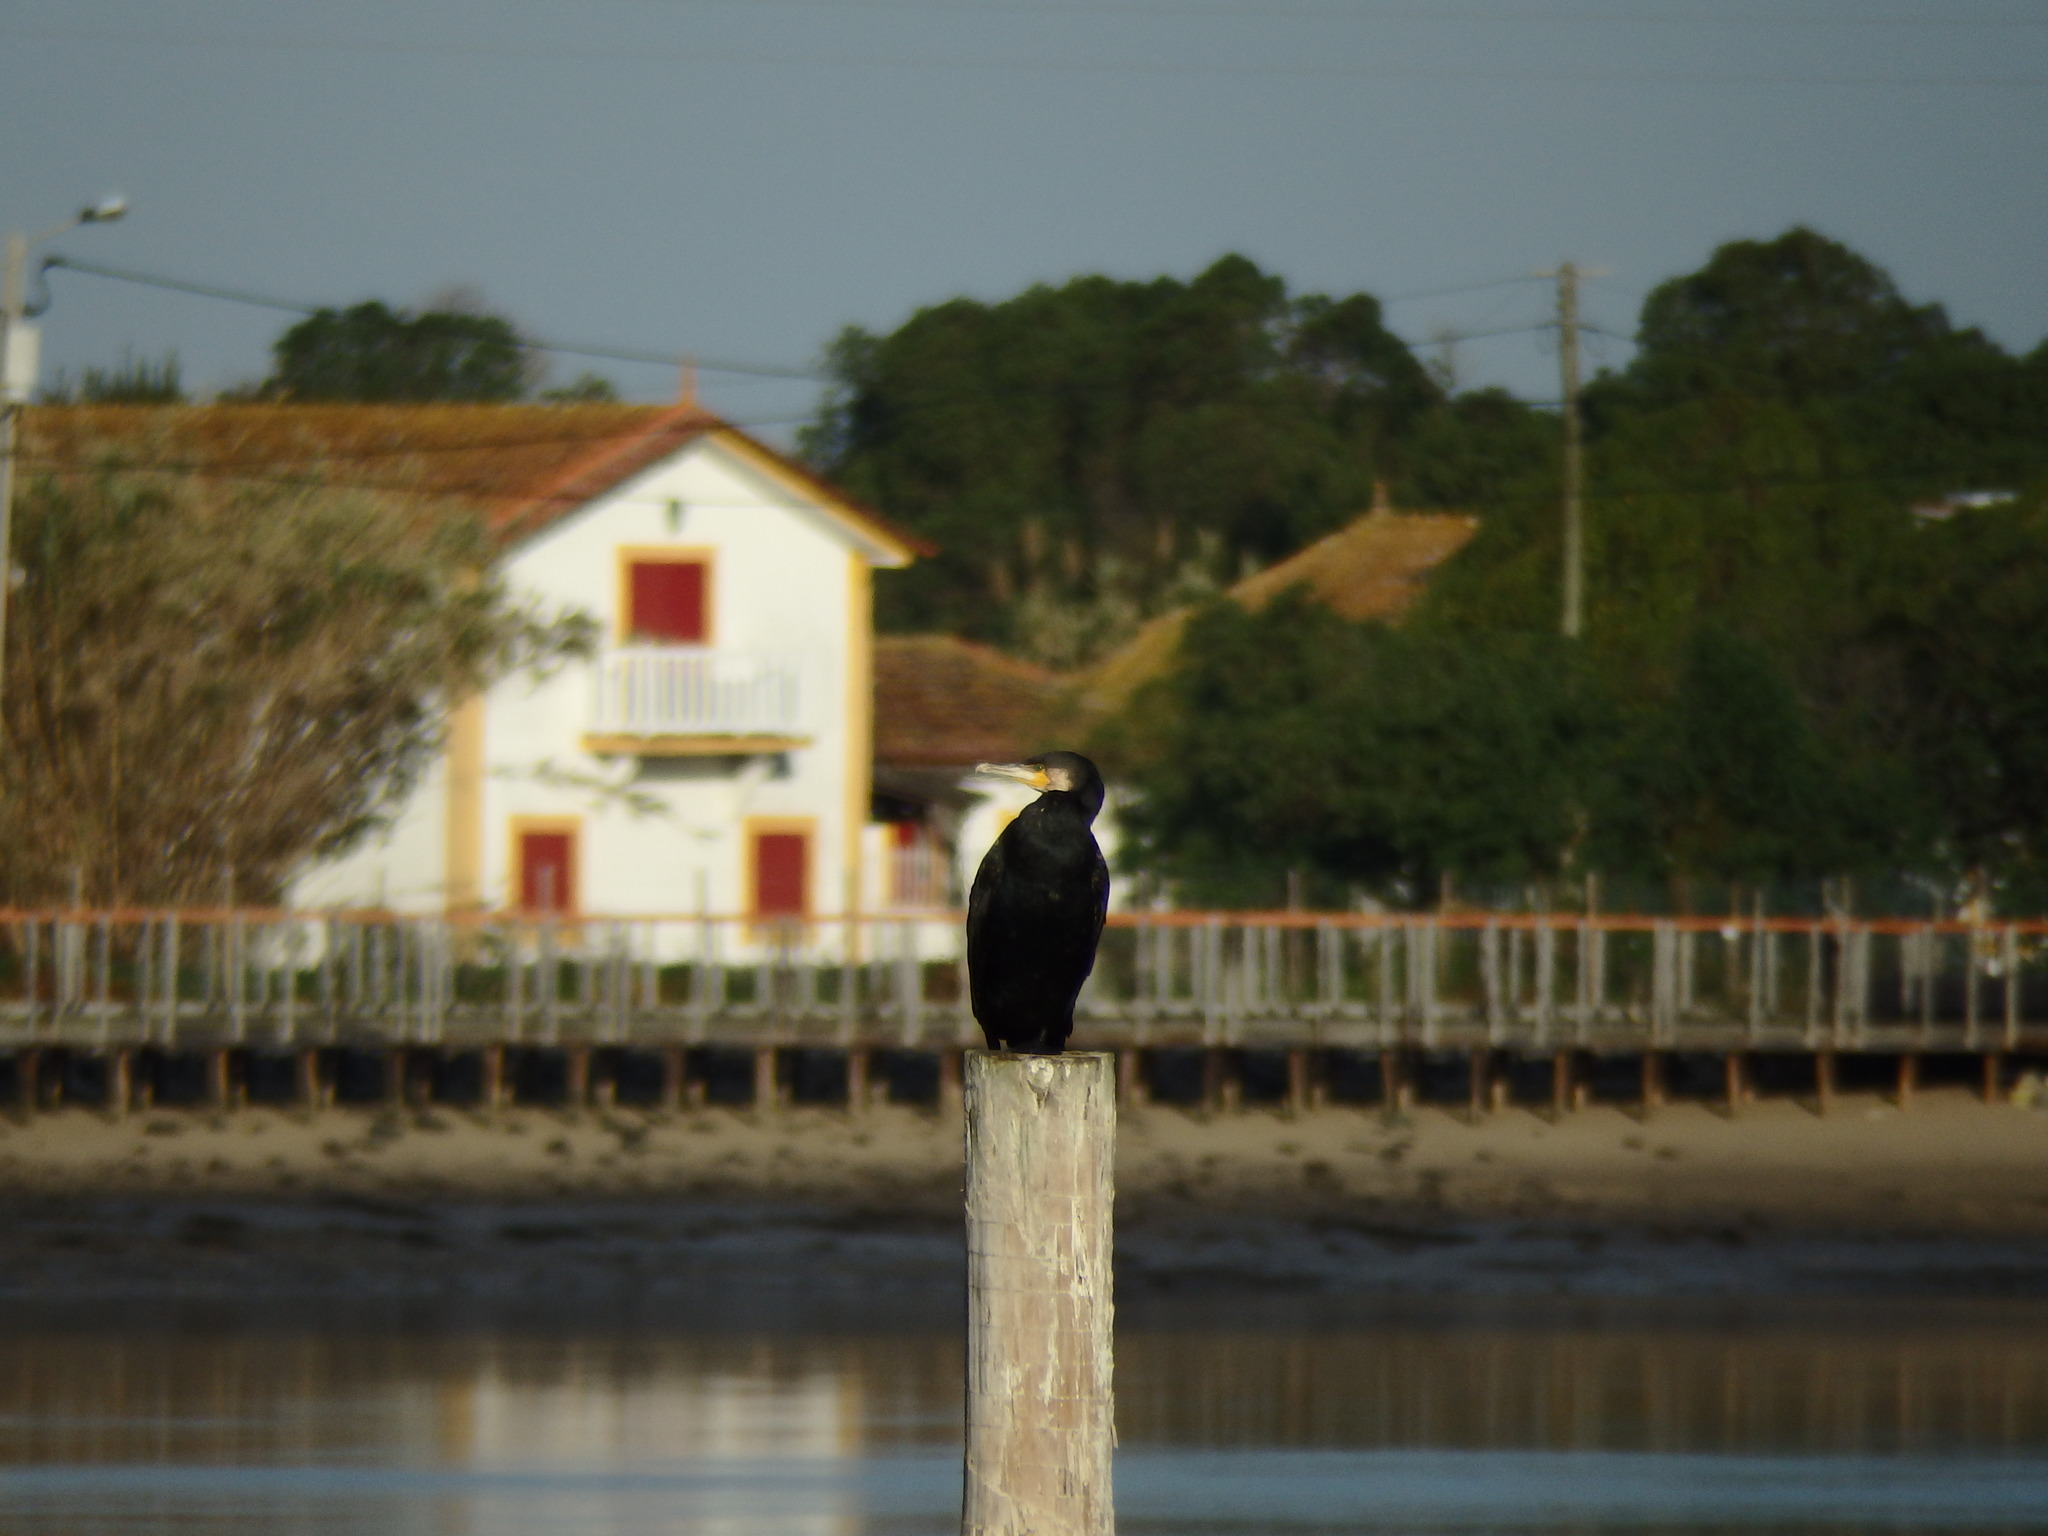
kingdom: Animalia
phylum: Chordata
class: Aves
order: Suliformes
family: Phalacrocoracidae
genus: Phalacrocorax
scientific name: Phalacrocorax carbo
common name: Great cormorant
